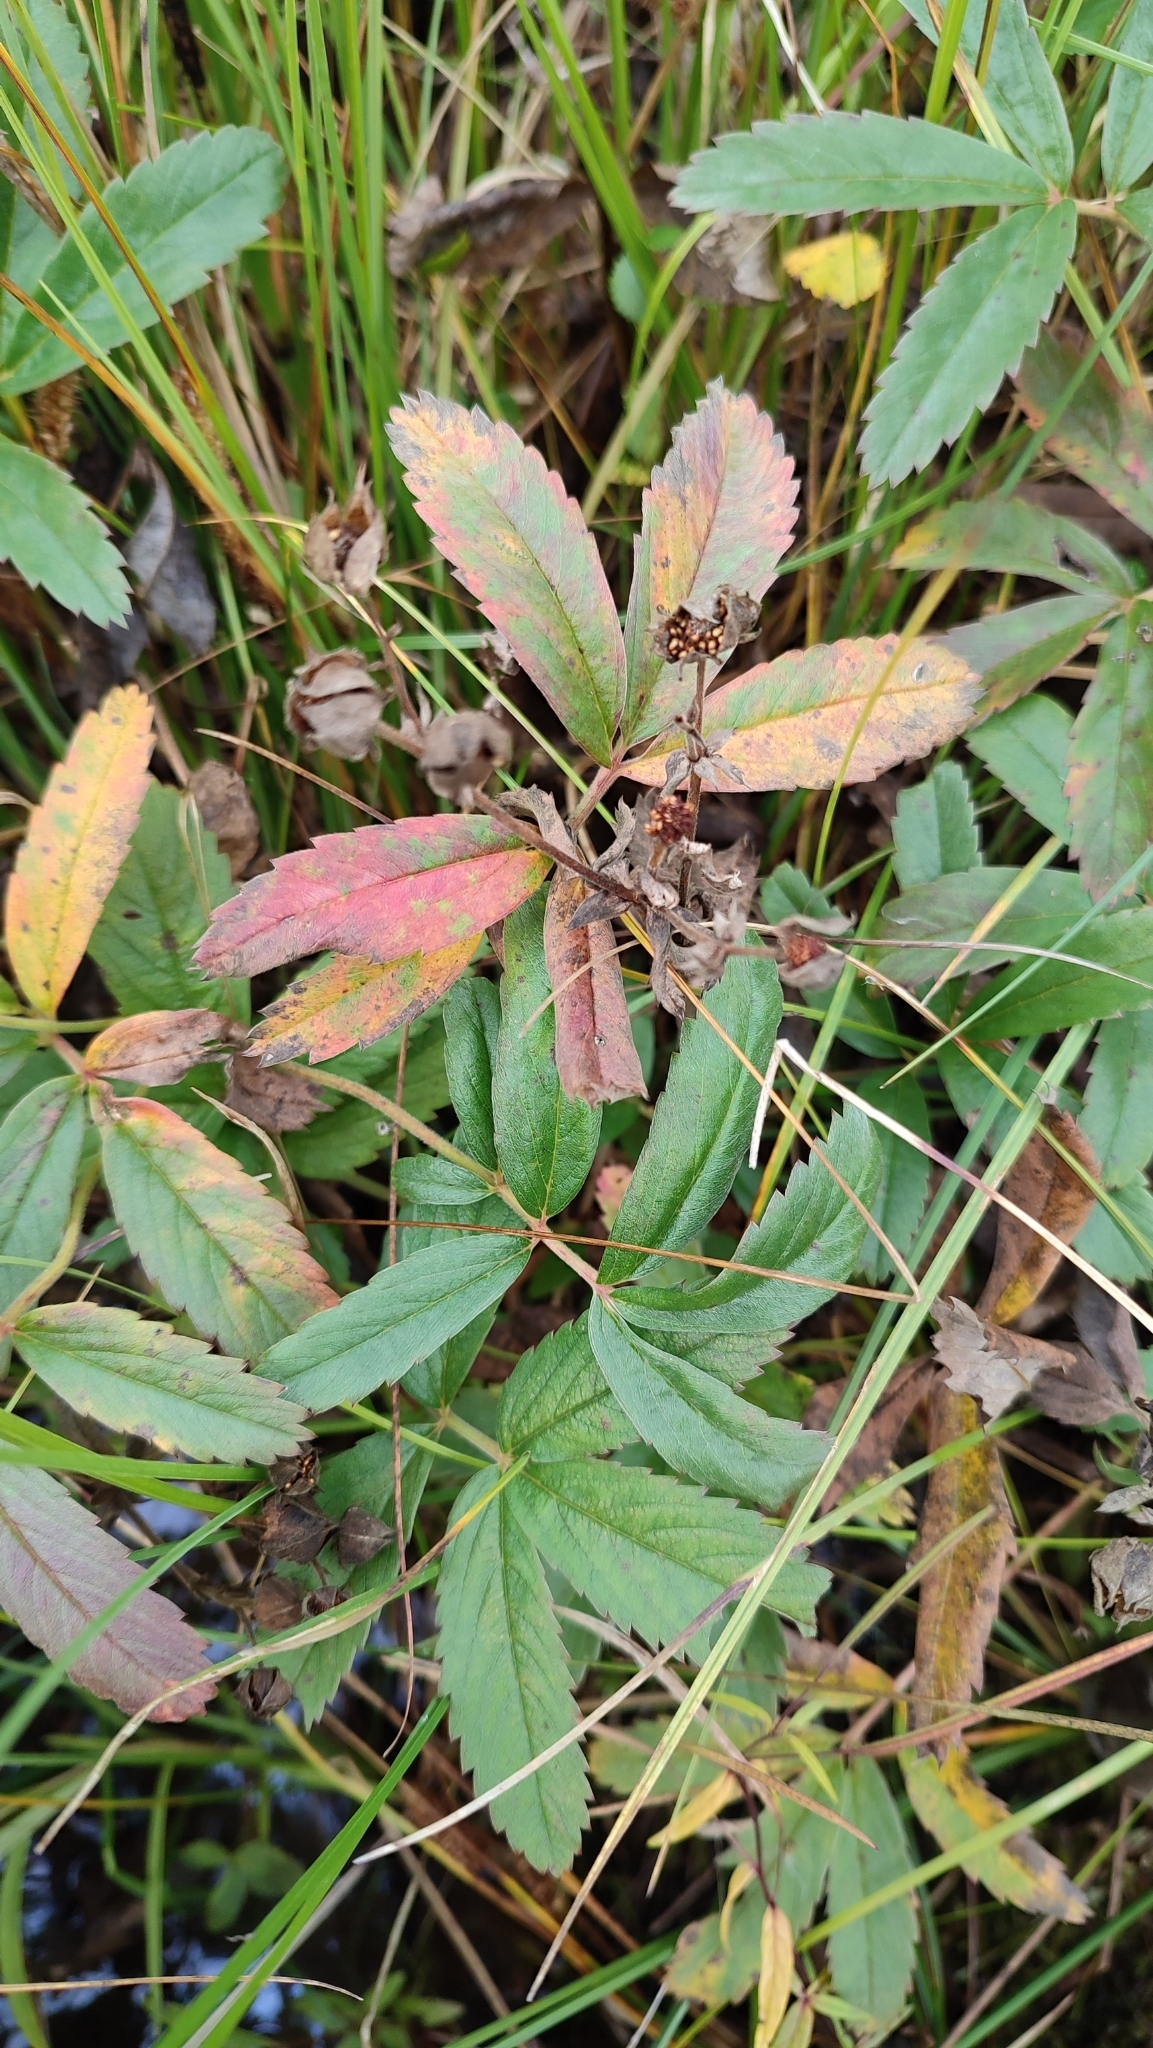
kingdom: Plantae
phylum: Tracheophyta
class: Magnoliopsida
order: Rosales
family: Rosaceae
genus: Comarum
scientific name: Comarum palustre
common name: Marsh cinquefoil
